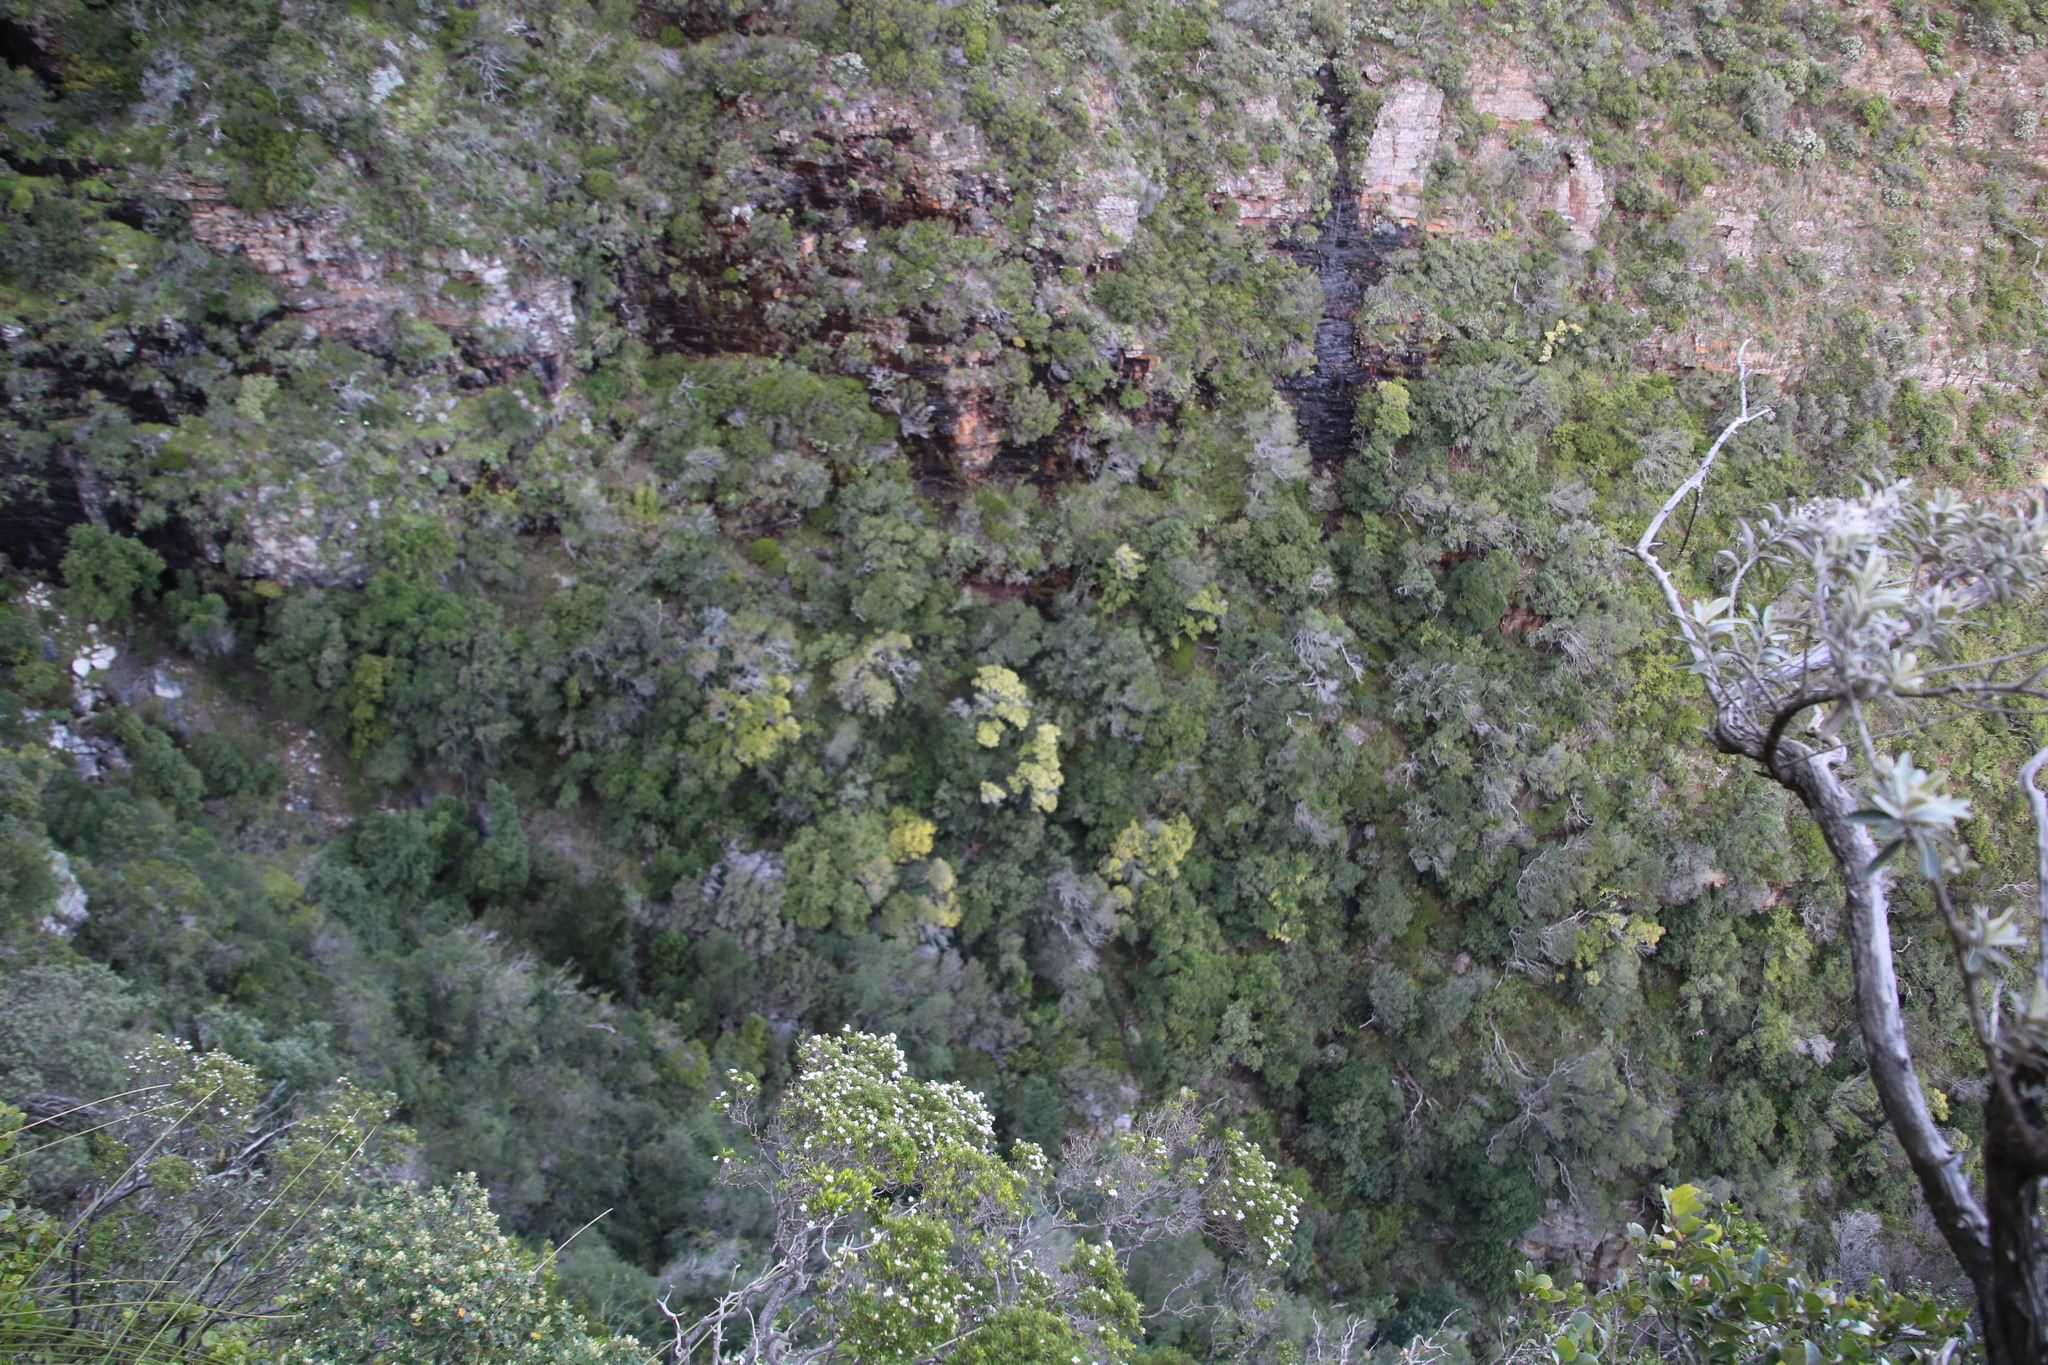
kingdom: Plantae
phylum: Tracheophyta
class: Magnoliopsida
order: Myrtales
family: Penaeaceae
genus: Olinia
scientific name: Olinia ventosa
